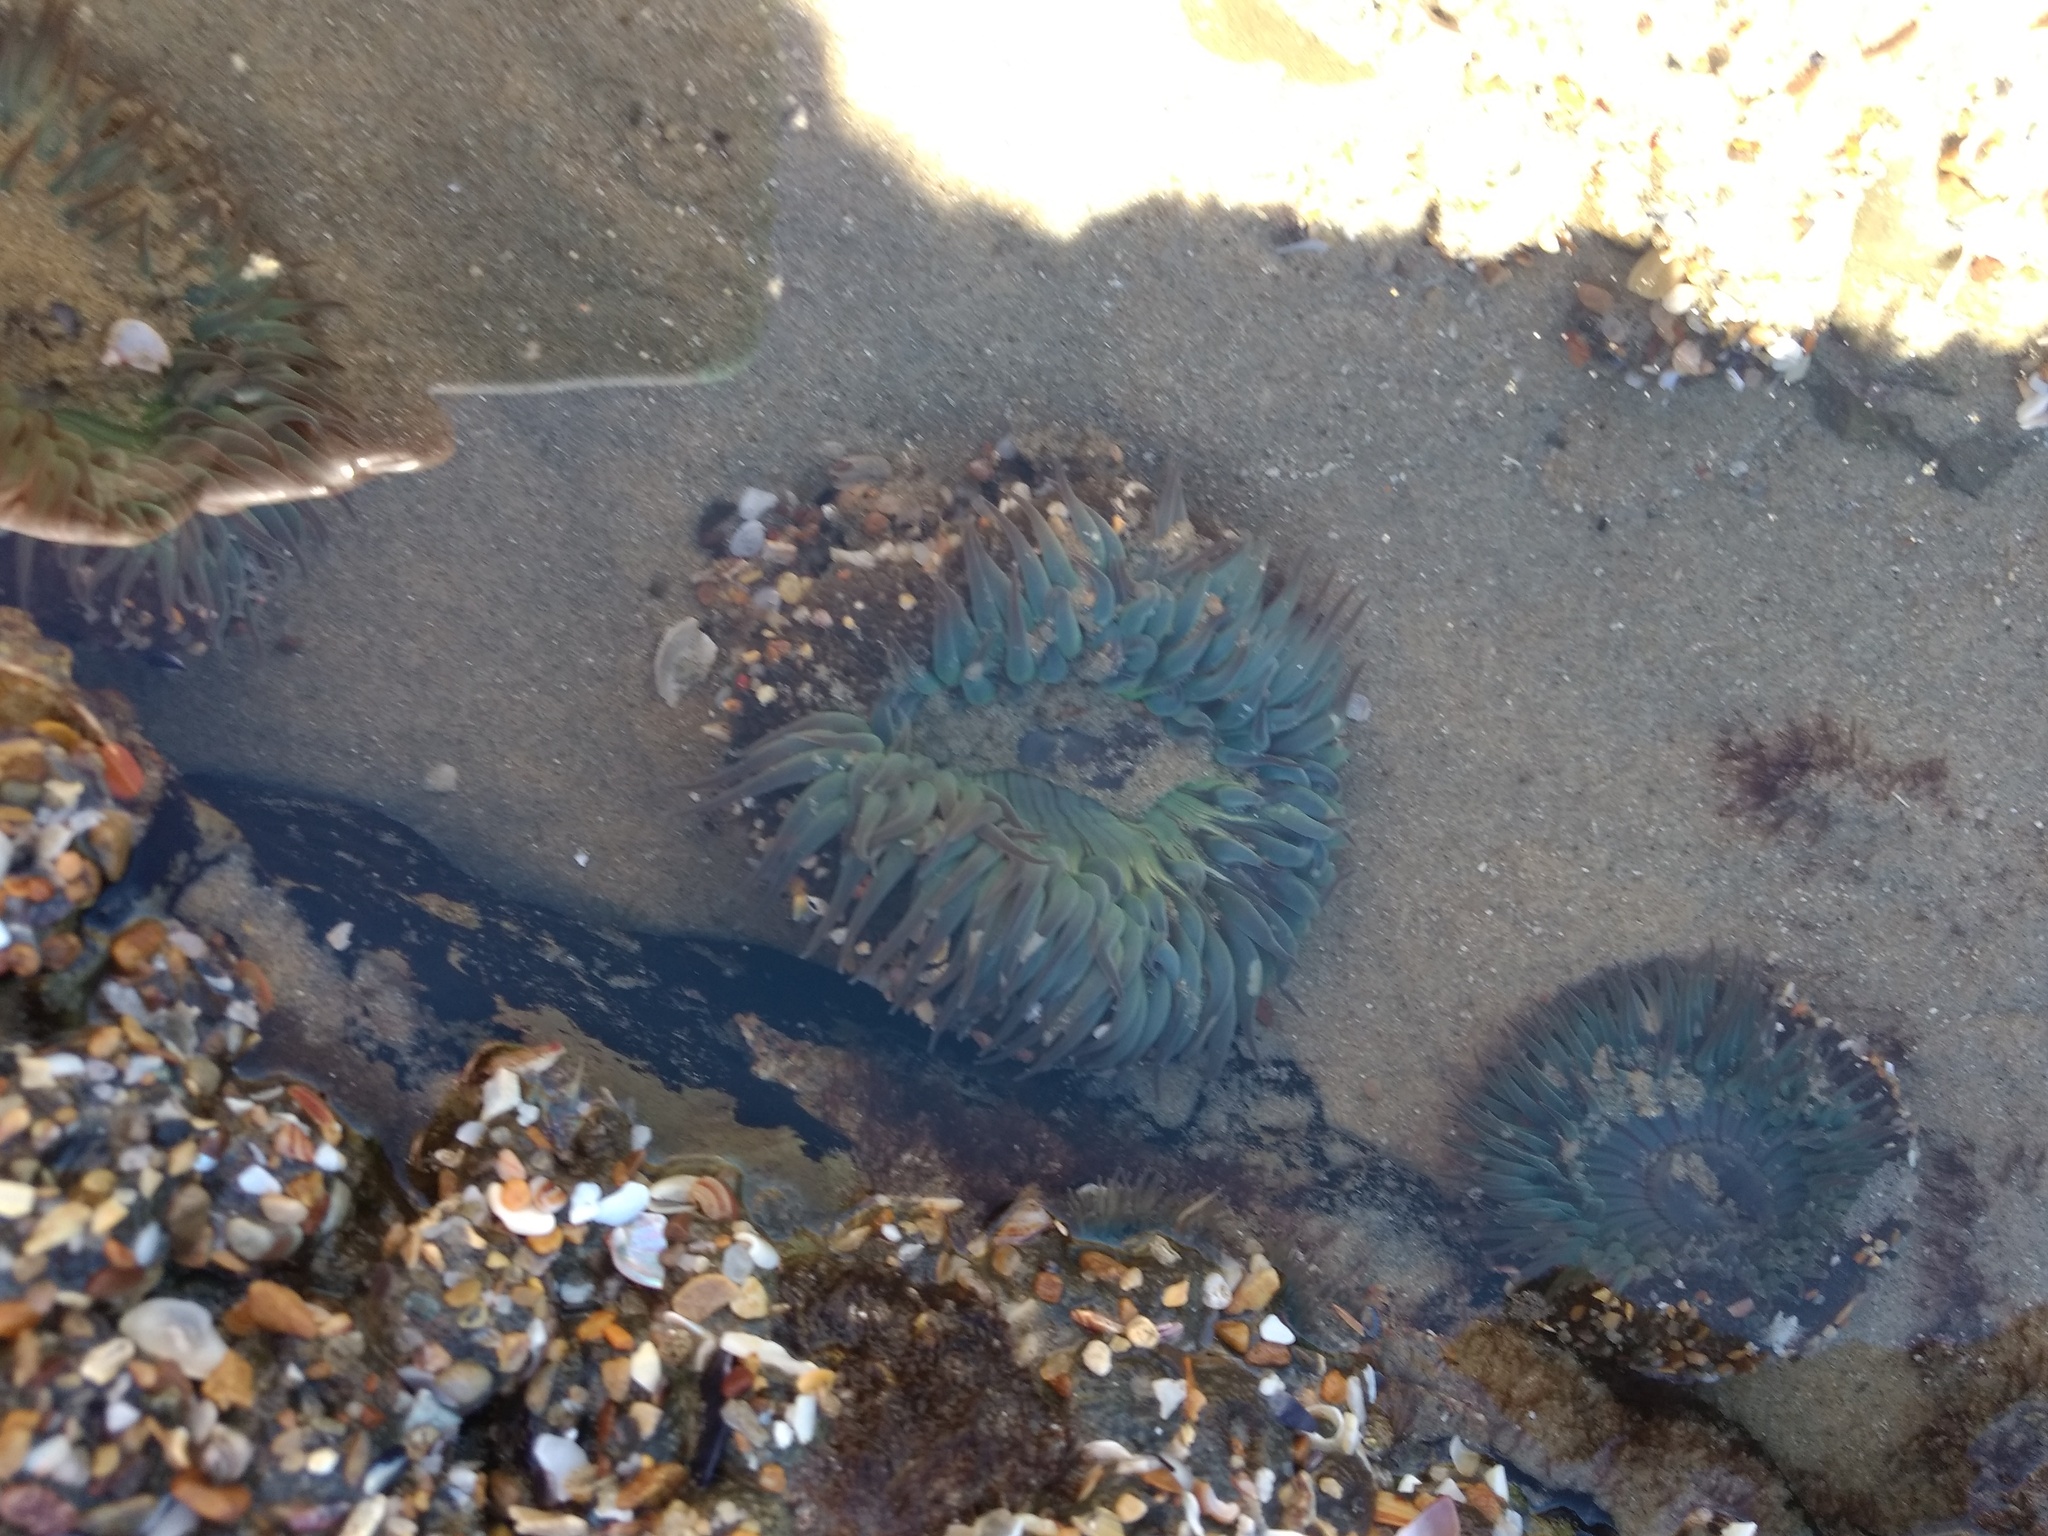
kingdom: Animalia
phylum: Cnidaria
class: Anthozoa
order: Actiniaria
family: Actiniidae
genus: Anthopleura
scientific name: Anthopleura sola
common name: Sun anemone
